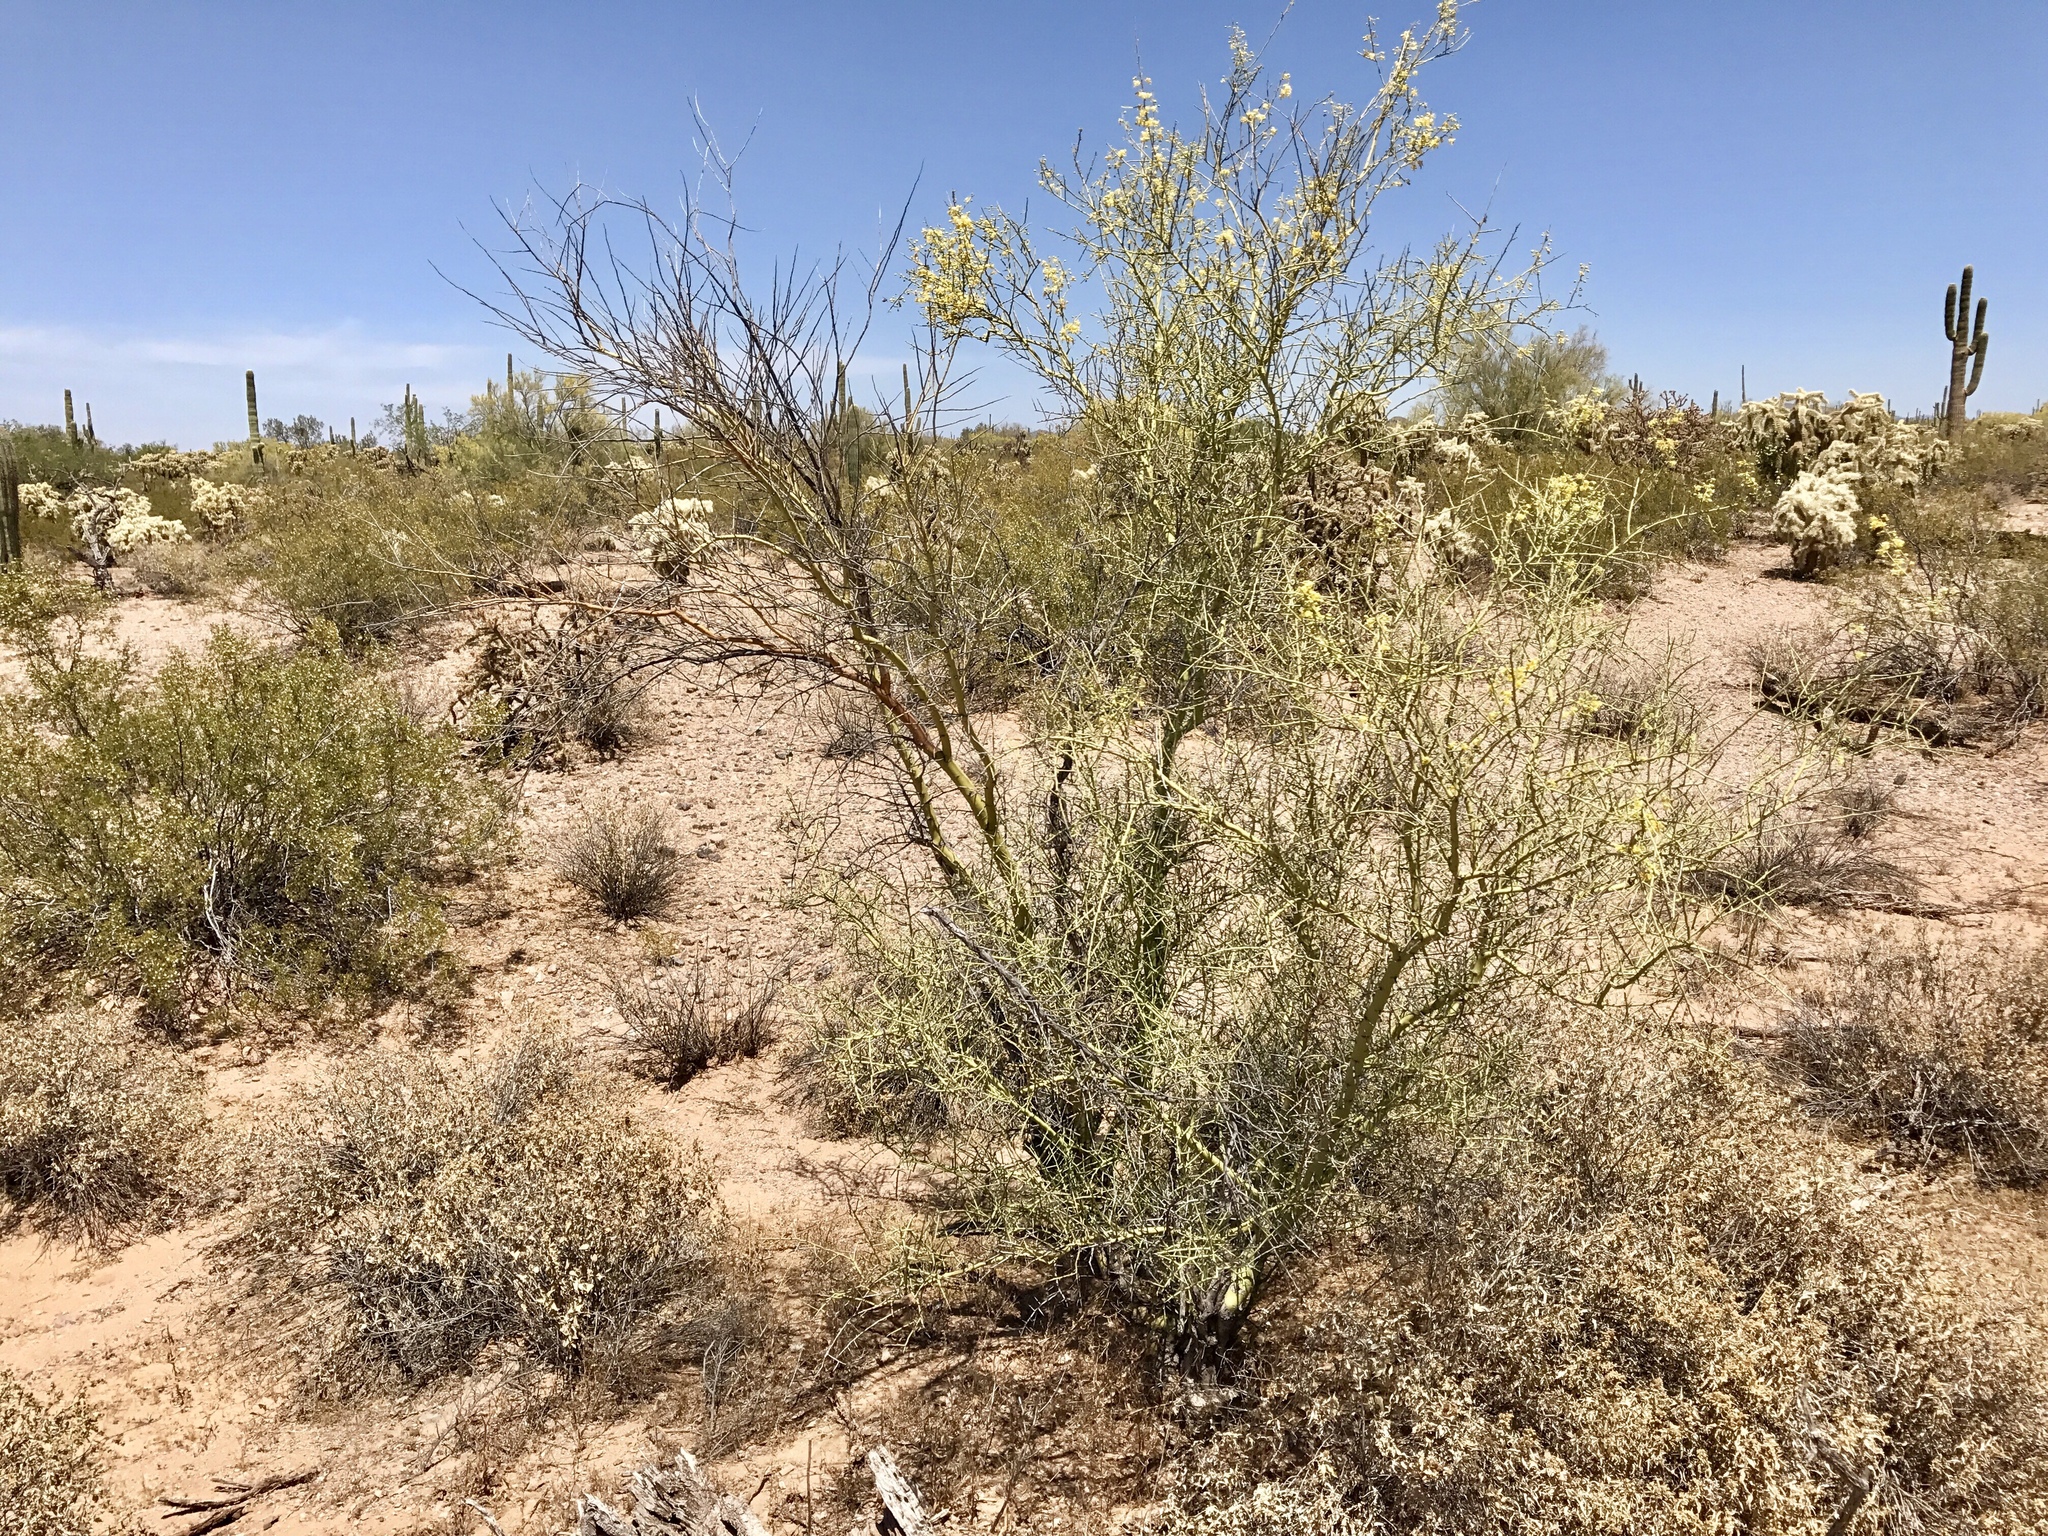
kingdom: Plantae
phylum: Tracheophyta
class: Magnoliopsida
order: Fabales
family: Fabaceae
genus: Parkinsonia
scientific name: Parkinsonia microphylla
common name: Yellow paloverde
